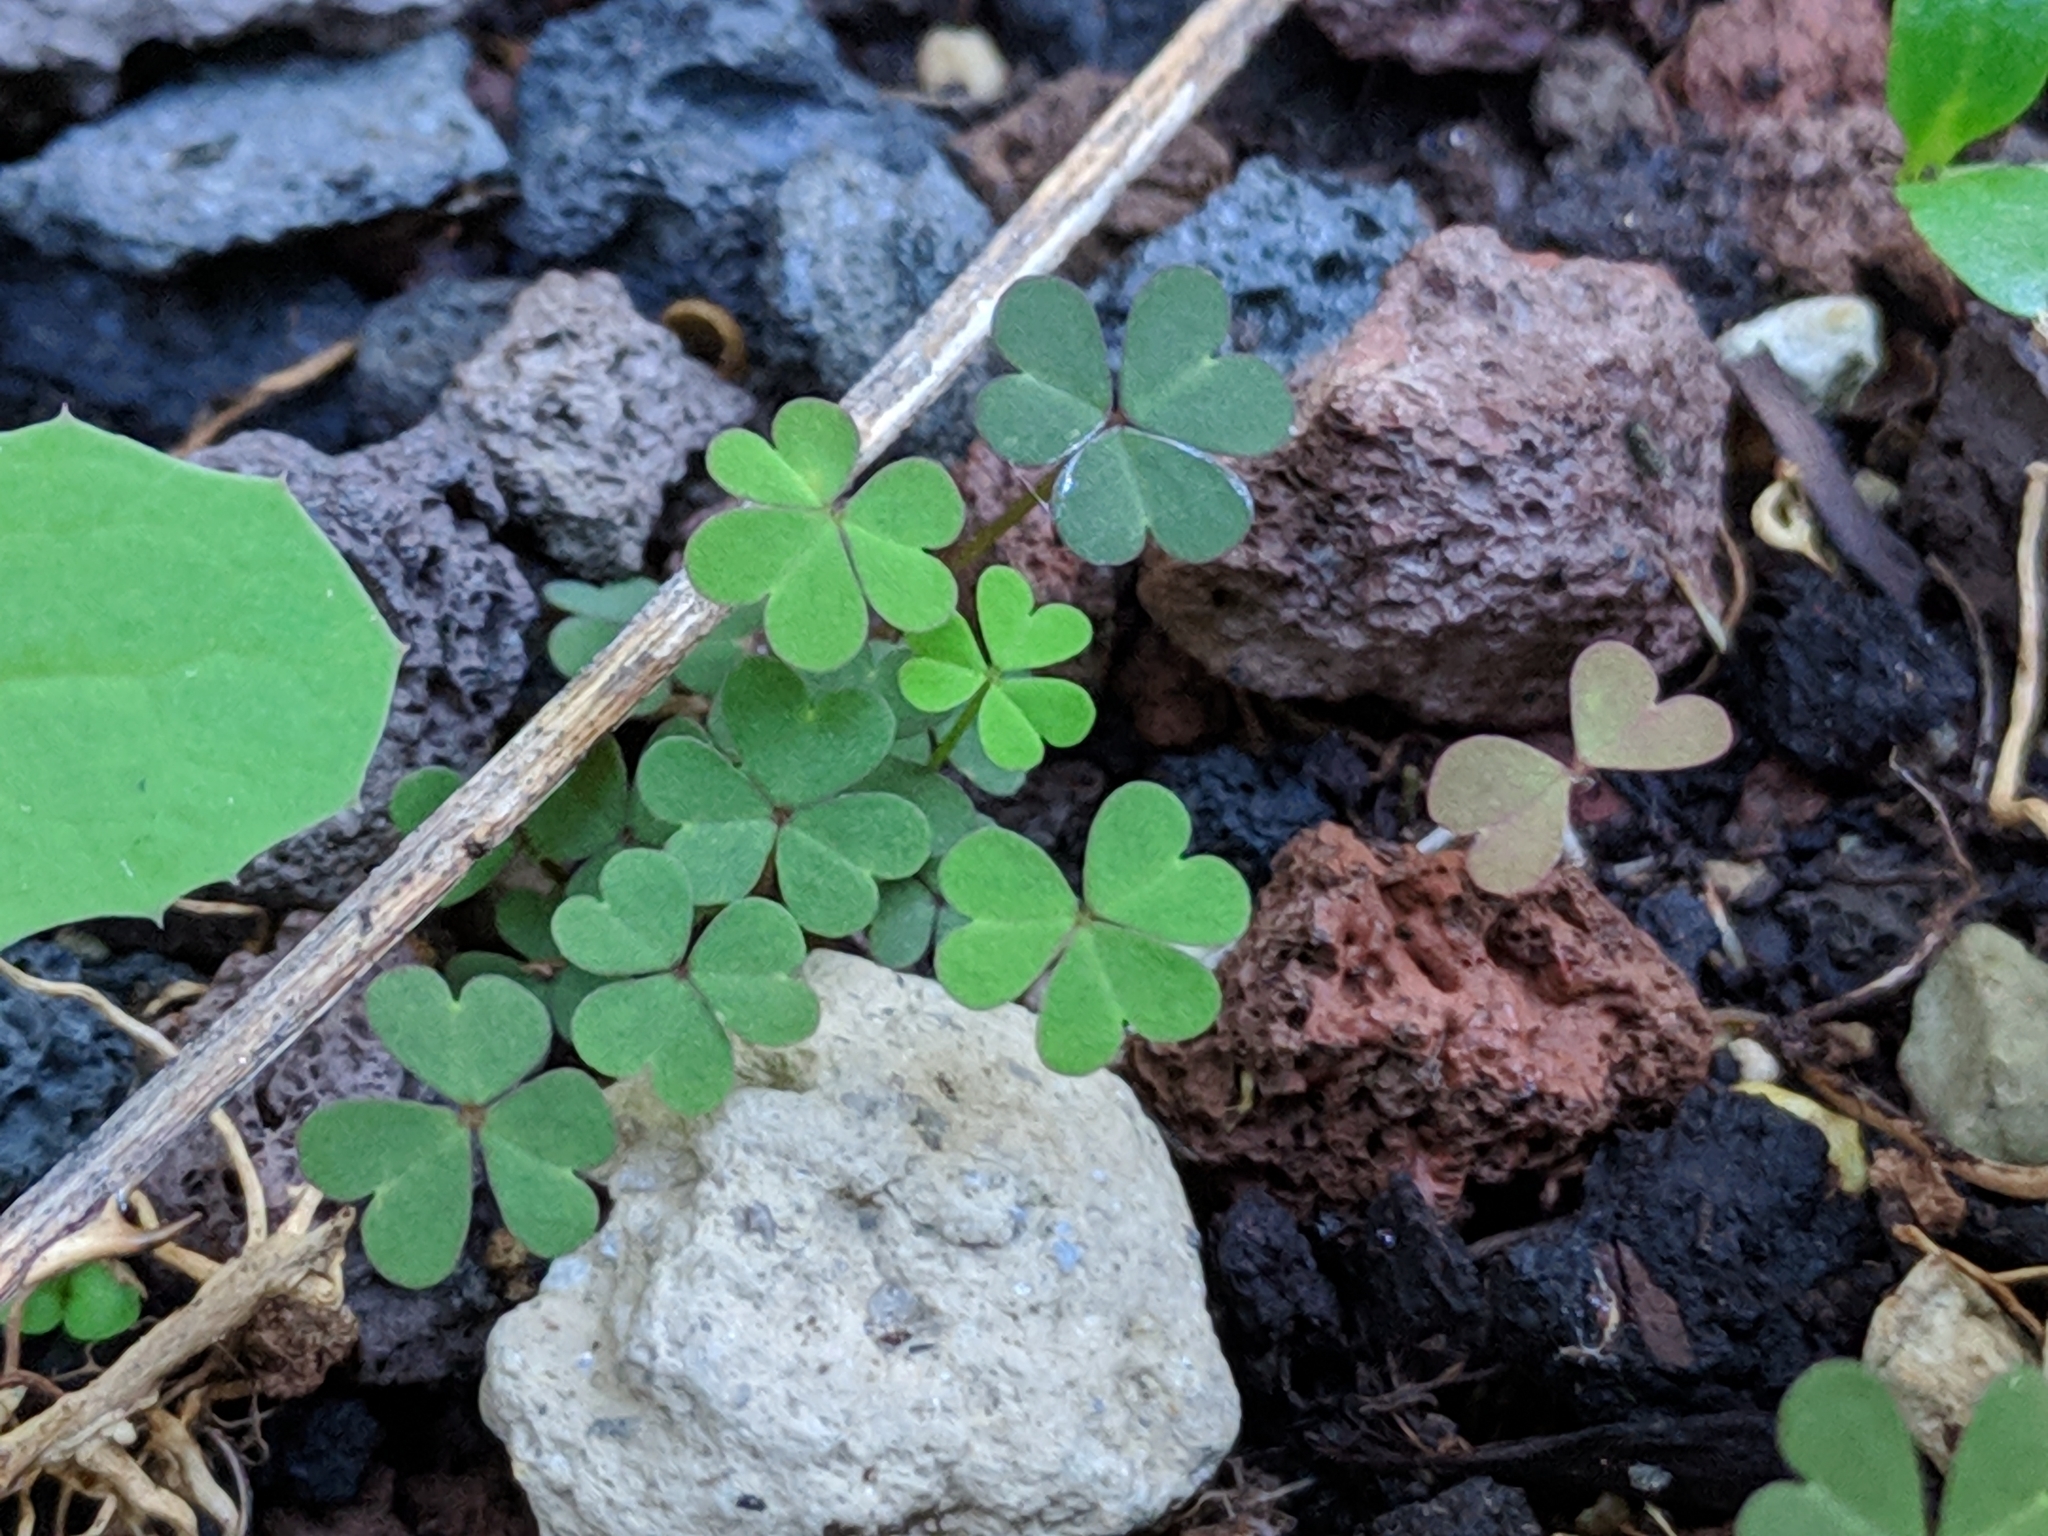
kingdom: Plantae
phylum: Tracheophyta
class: Magnoliopsida
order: Oxalidales
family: Oxalidaceae
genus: Oxalis
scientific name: Oxalis corniculata
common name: Procumbent yellow-sorrel
